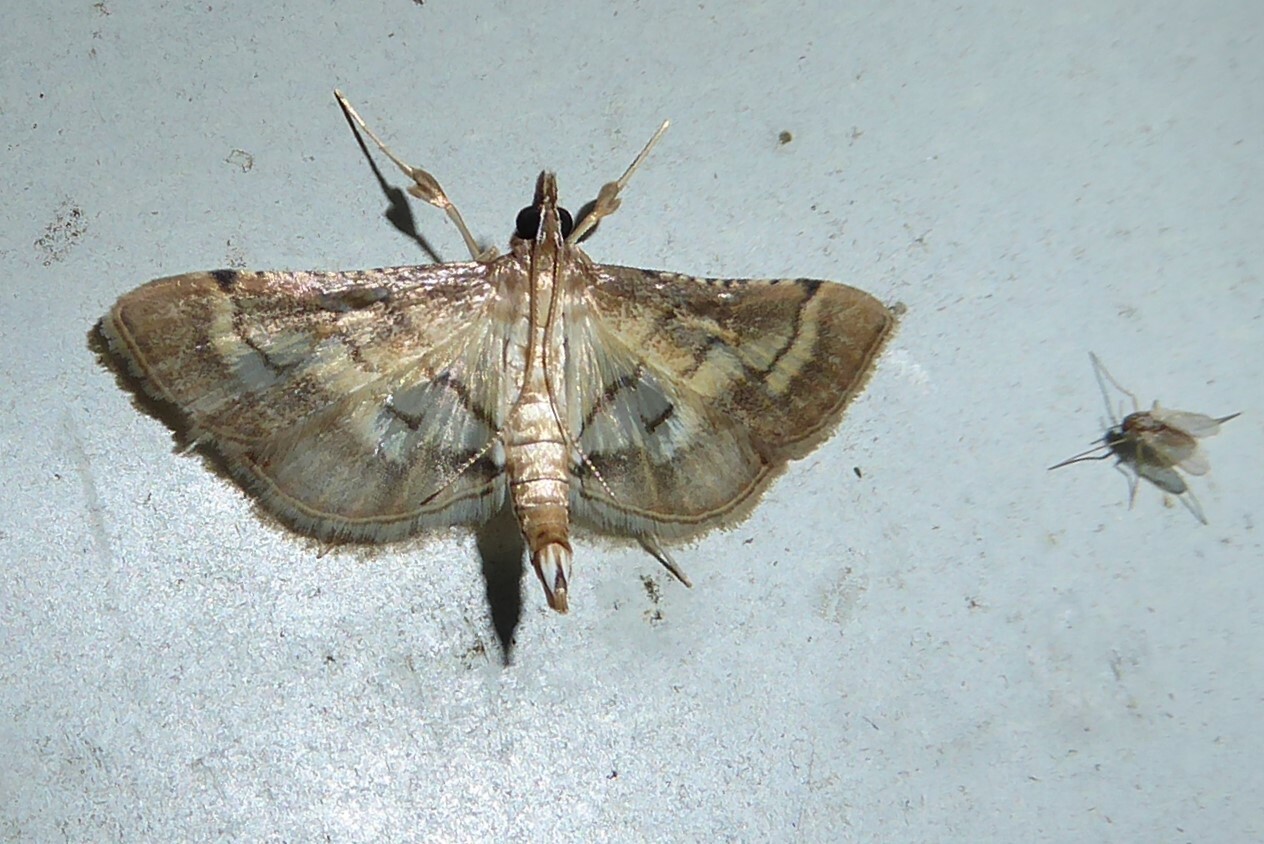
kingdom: Animalia
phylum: Arthropoda
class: Insecta
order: Lepidoptera
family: Crambidae
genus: Cnaphalocrocis
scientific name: Cnaphalocrocis poeyalis
